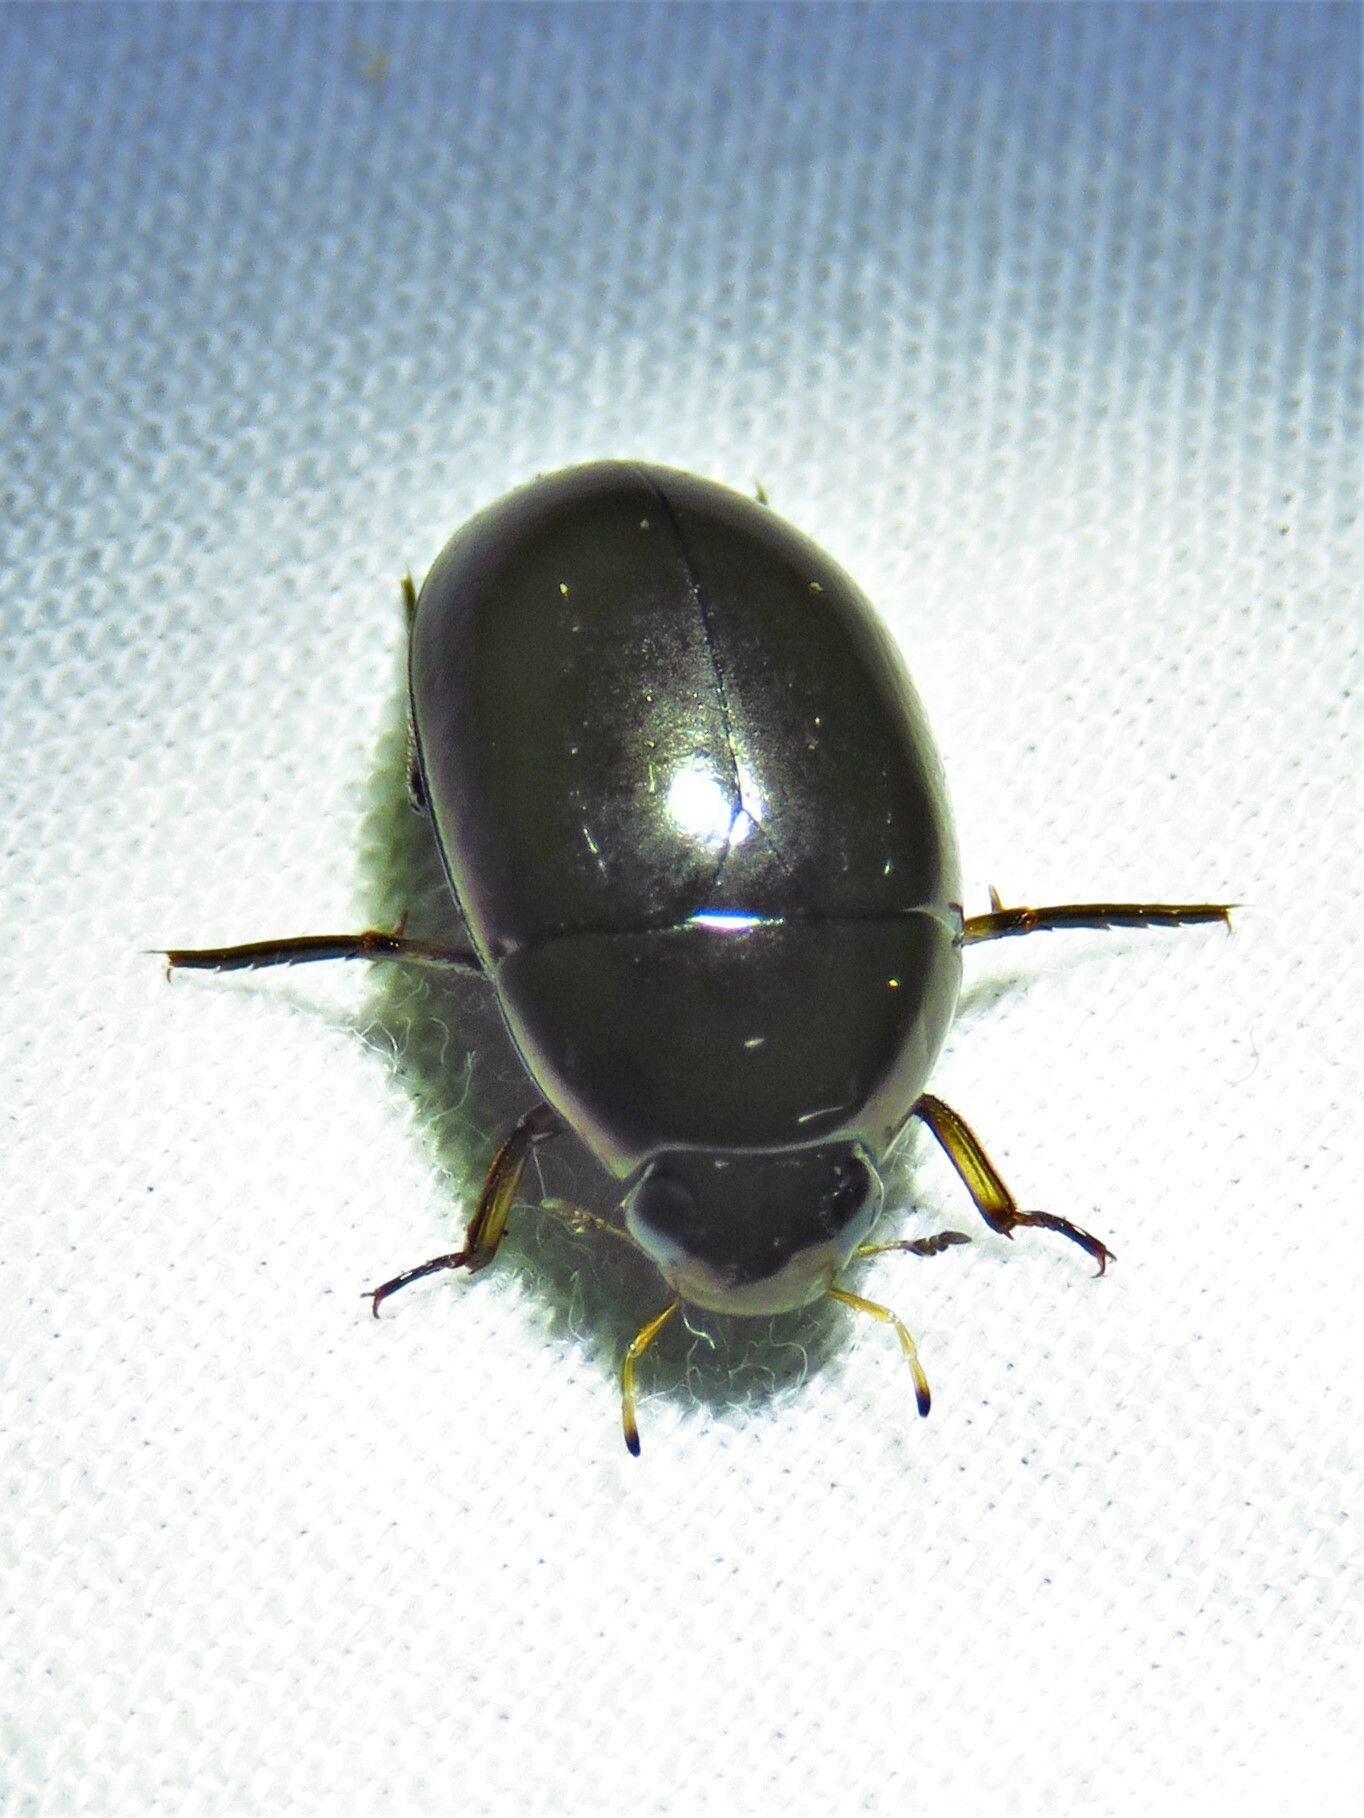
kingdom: Animalia
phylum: Arthropoda
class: Insecta
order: Coleoptera
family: Hydrophilidae
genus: Tropisternus
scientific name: Tropisternus
